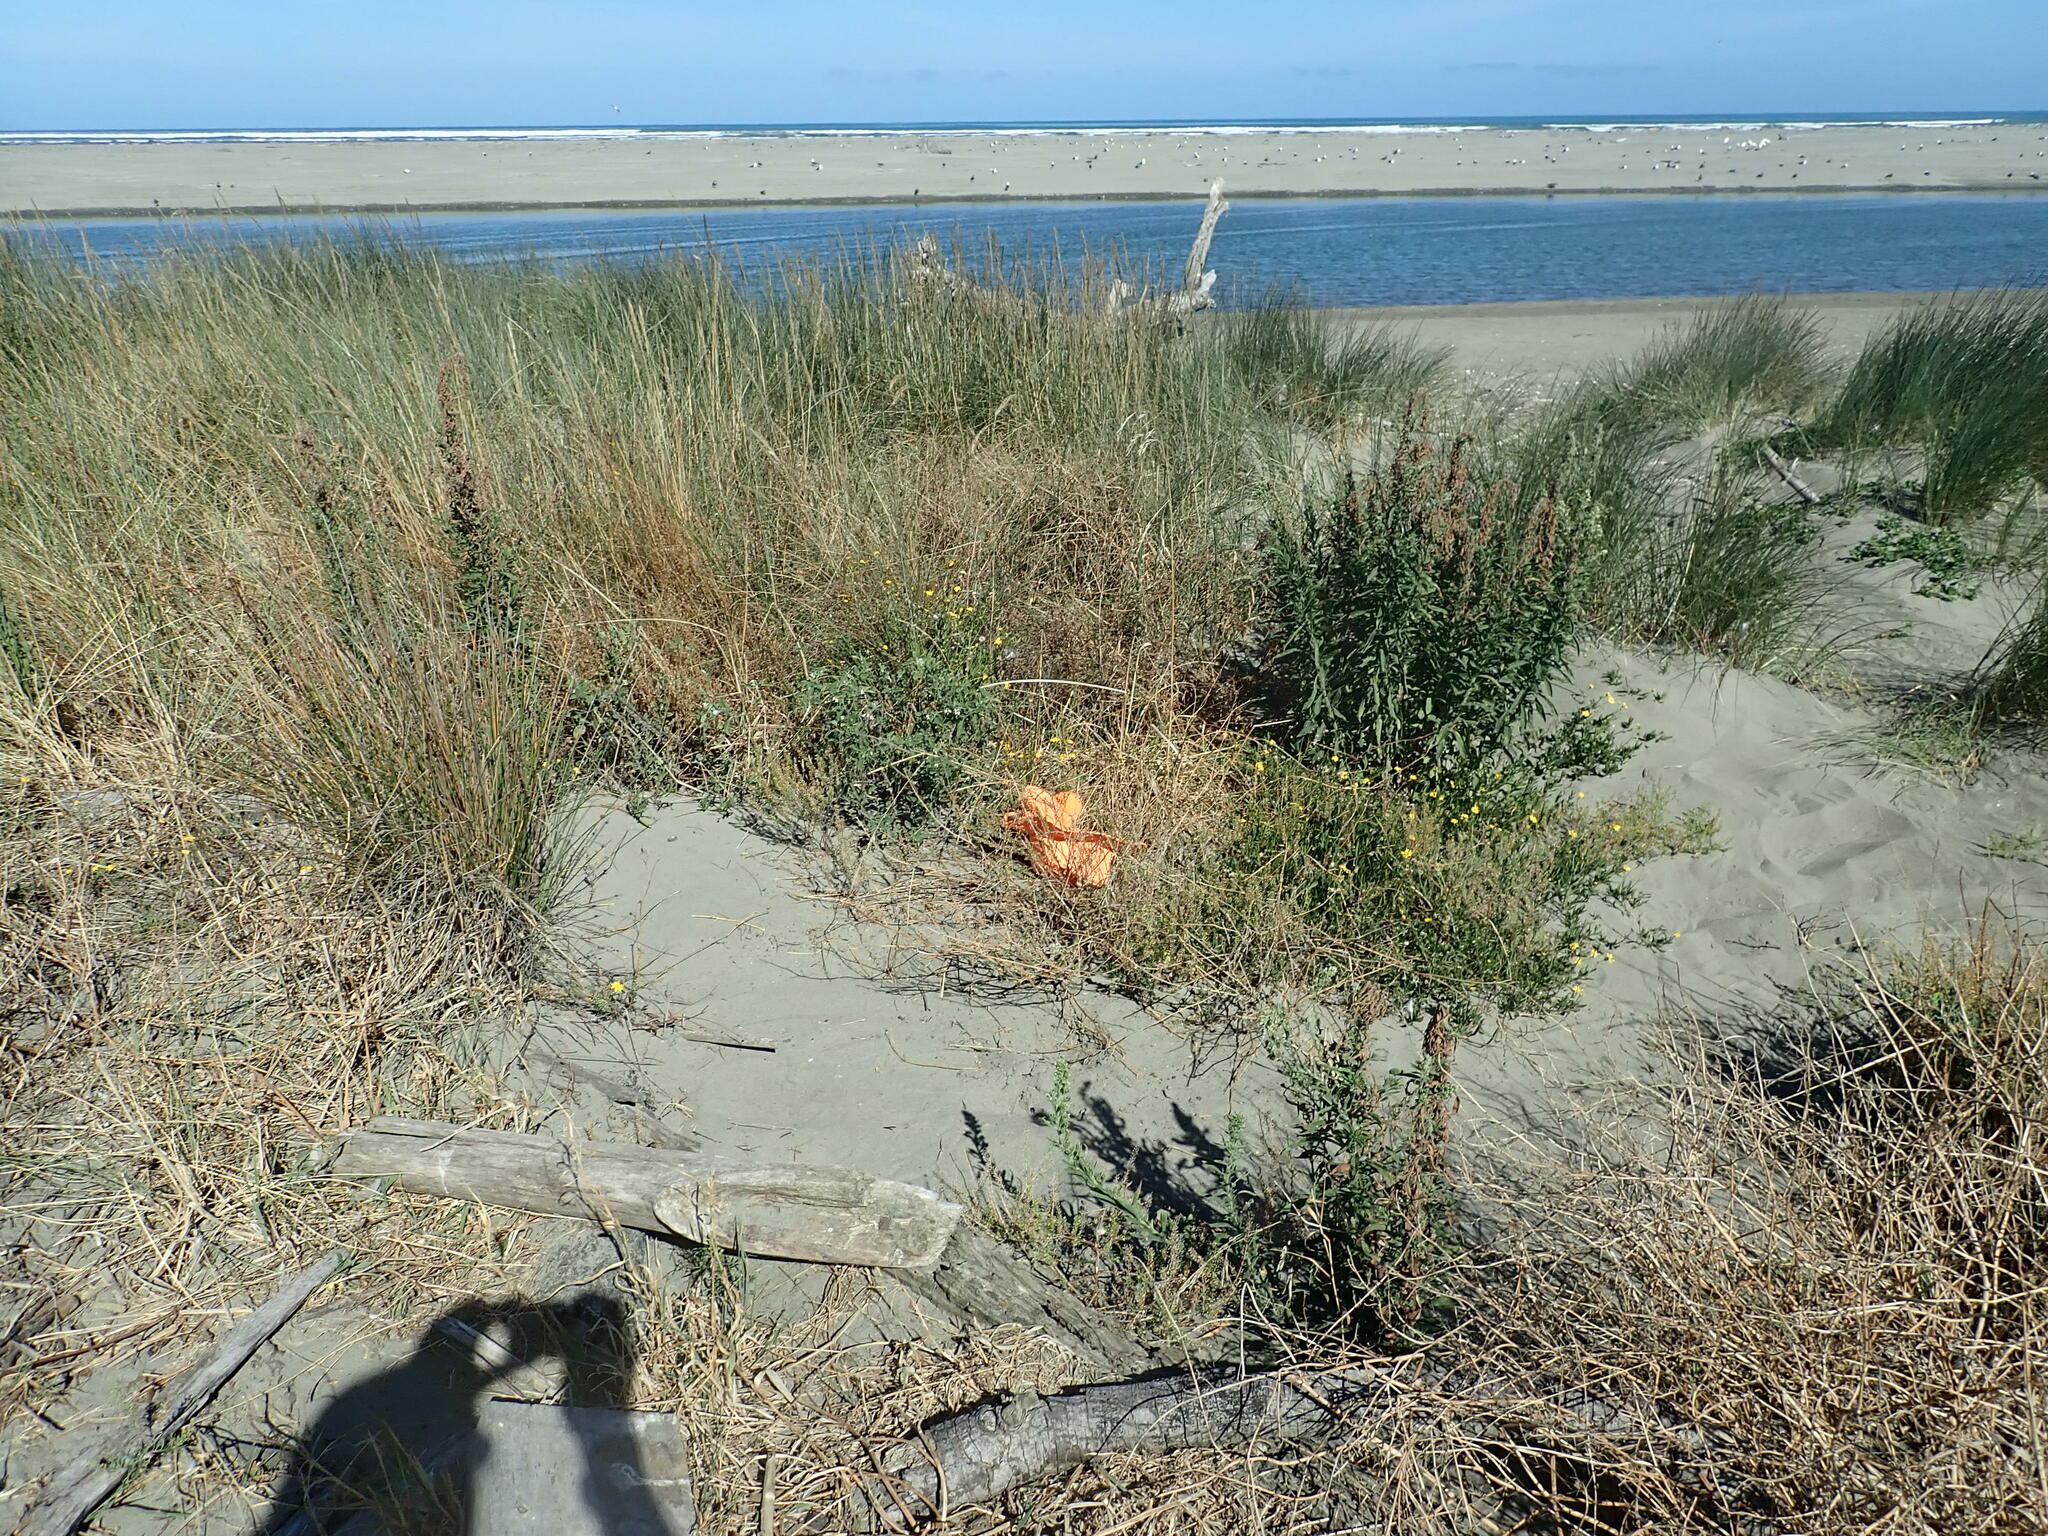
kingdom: Plantae
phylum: Tracheophyta
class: Magnoliopsida
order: Solanales
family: Solanaceae
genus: Solanum
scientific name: Solanum chenopodioides
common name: Tall nightshade
